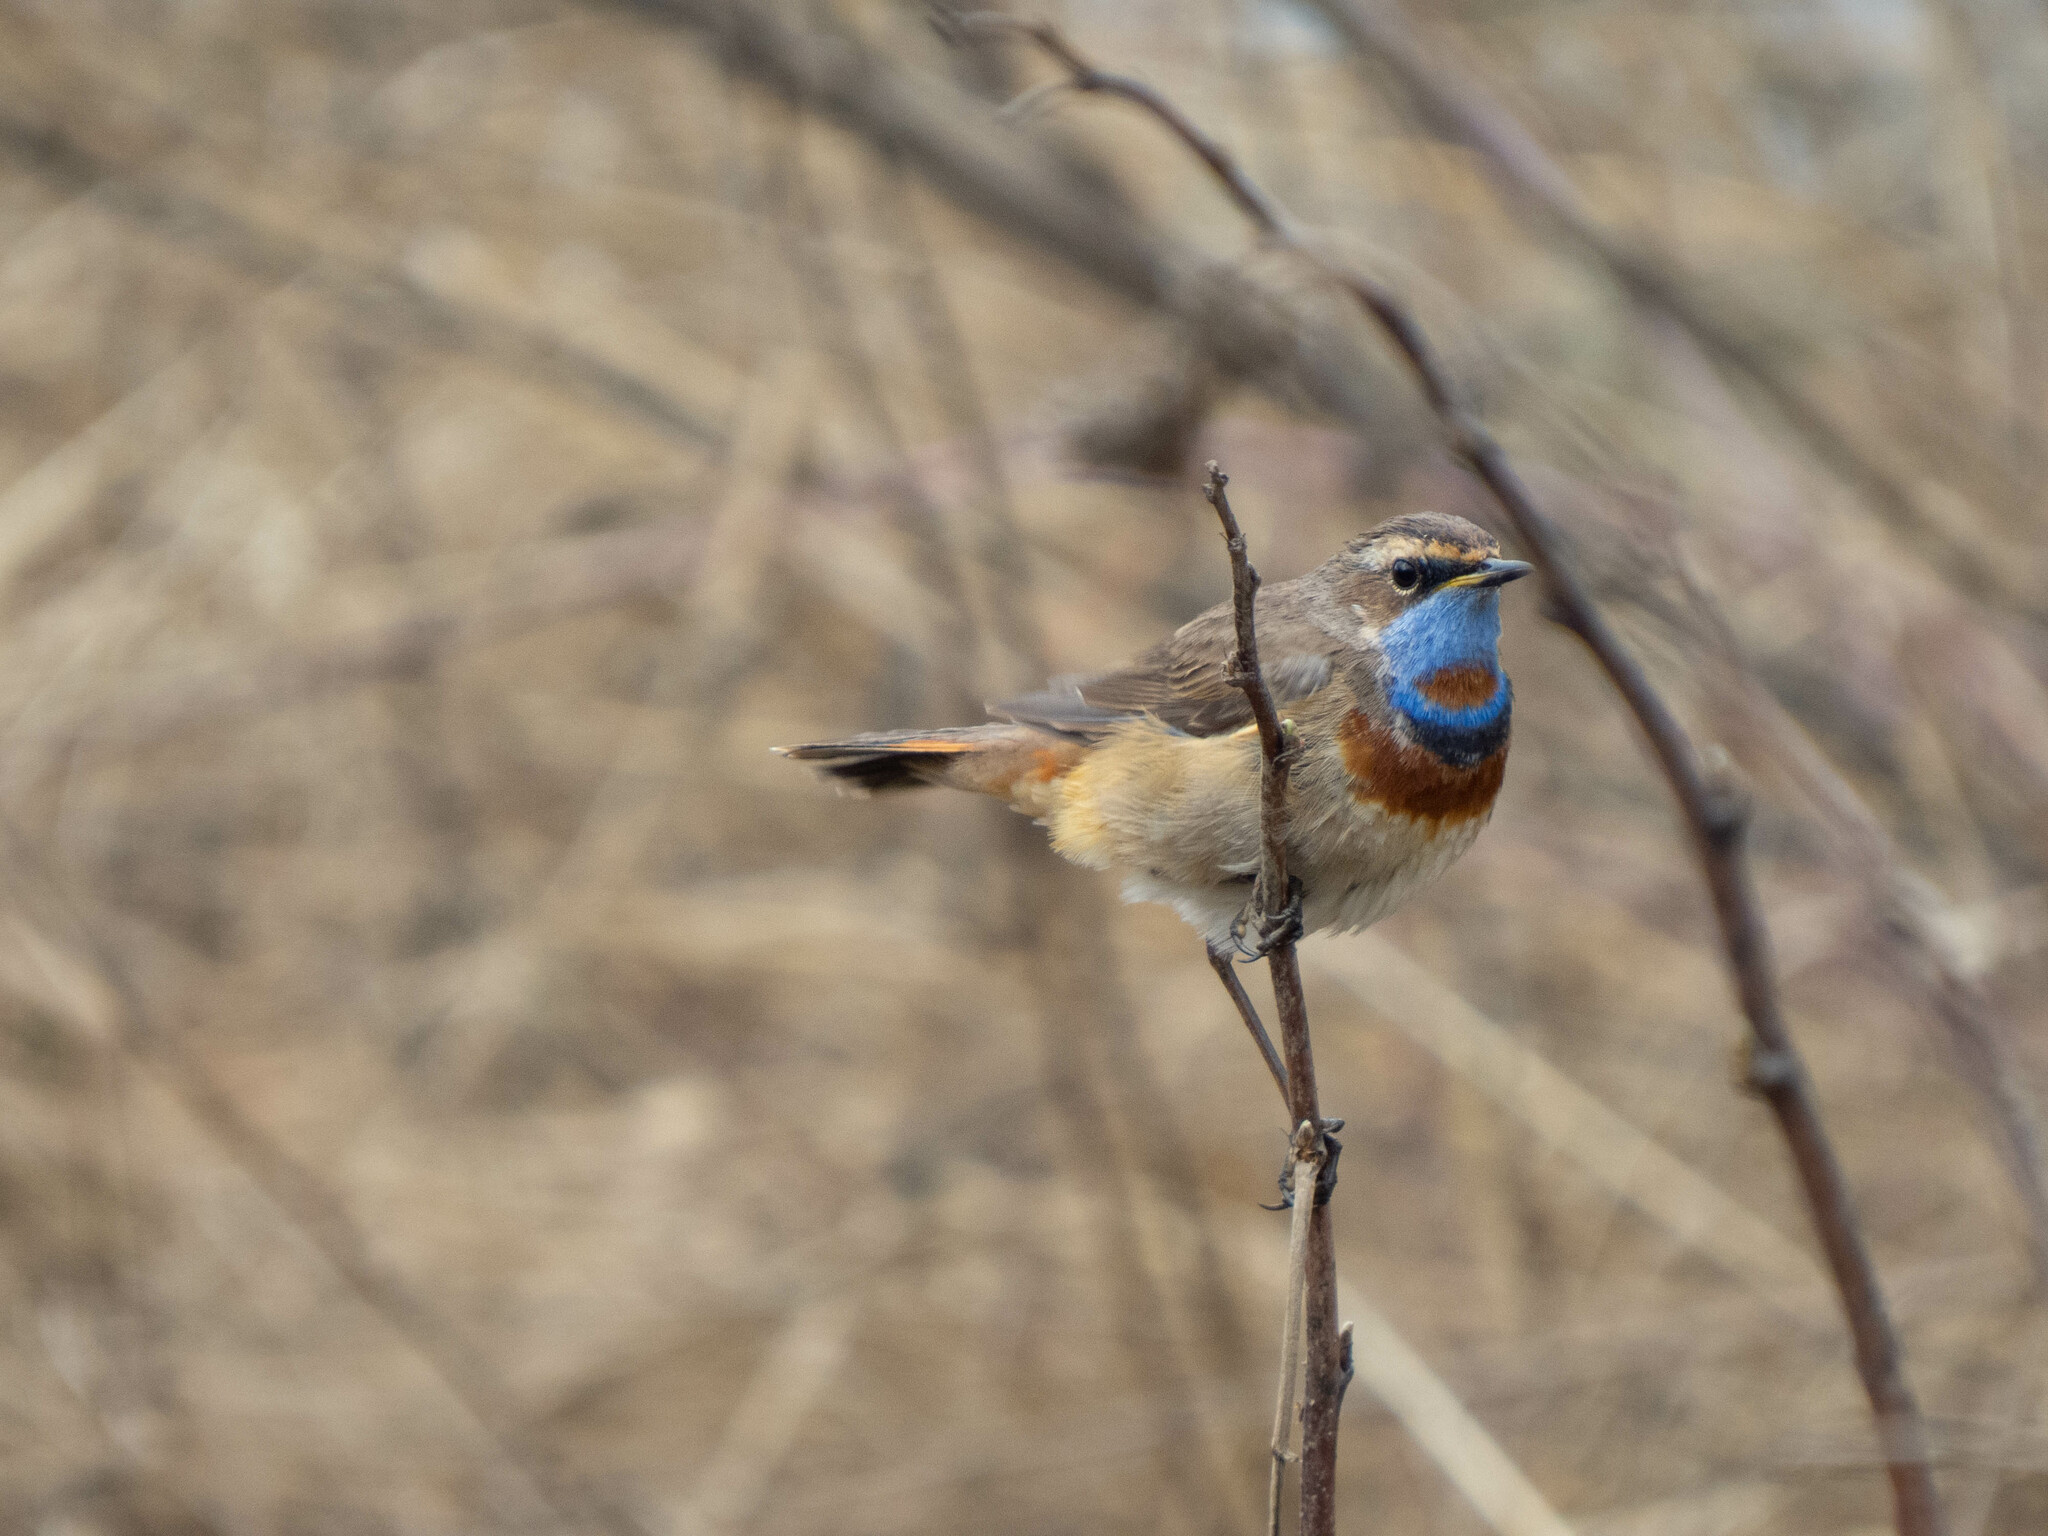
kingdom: Animalia
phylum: Chordata
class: Aves
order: Passeriformes
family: Muscicapidae
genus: Luscinia
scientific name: Luscinia svecica
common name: Bluethroat
